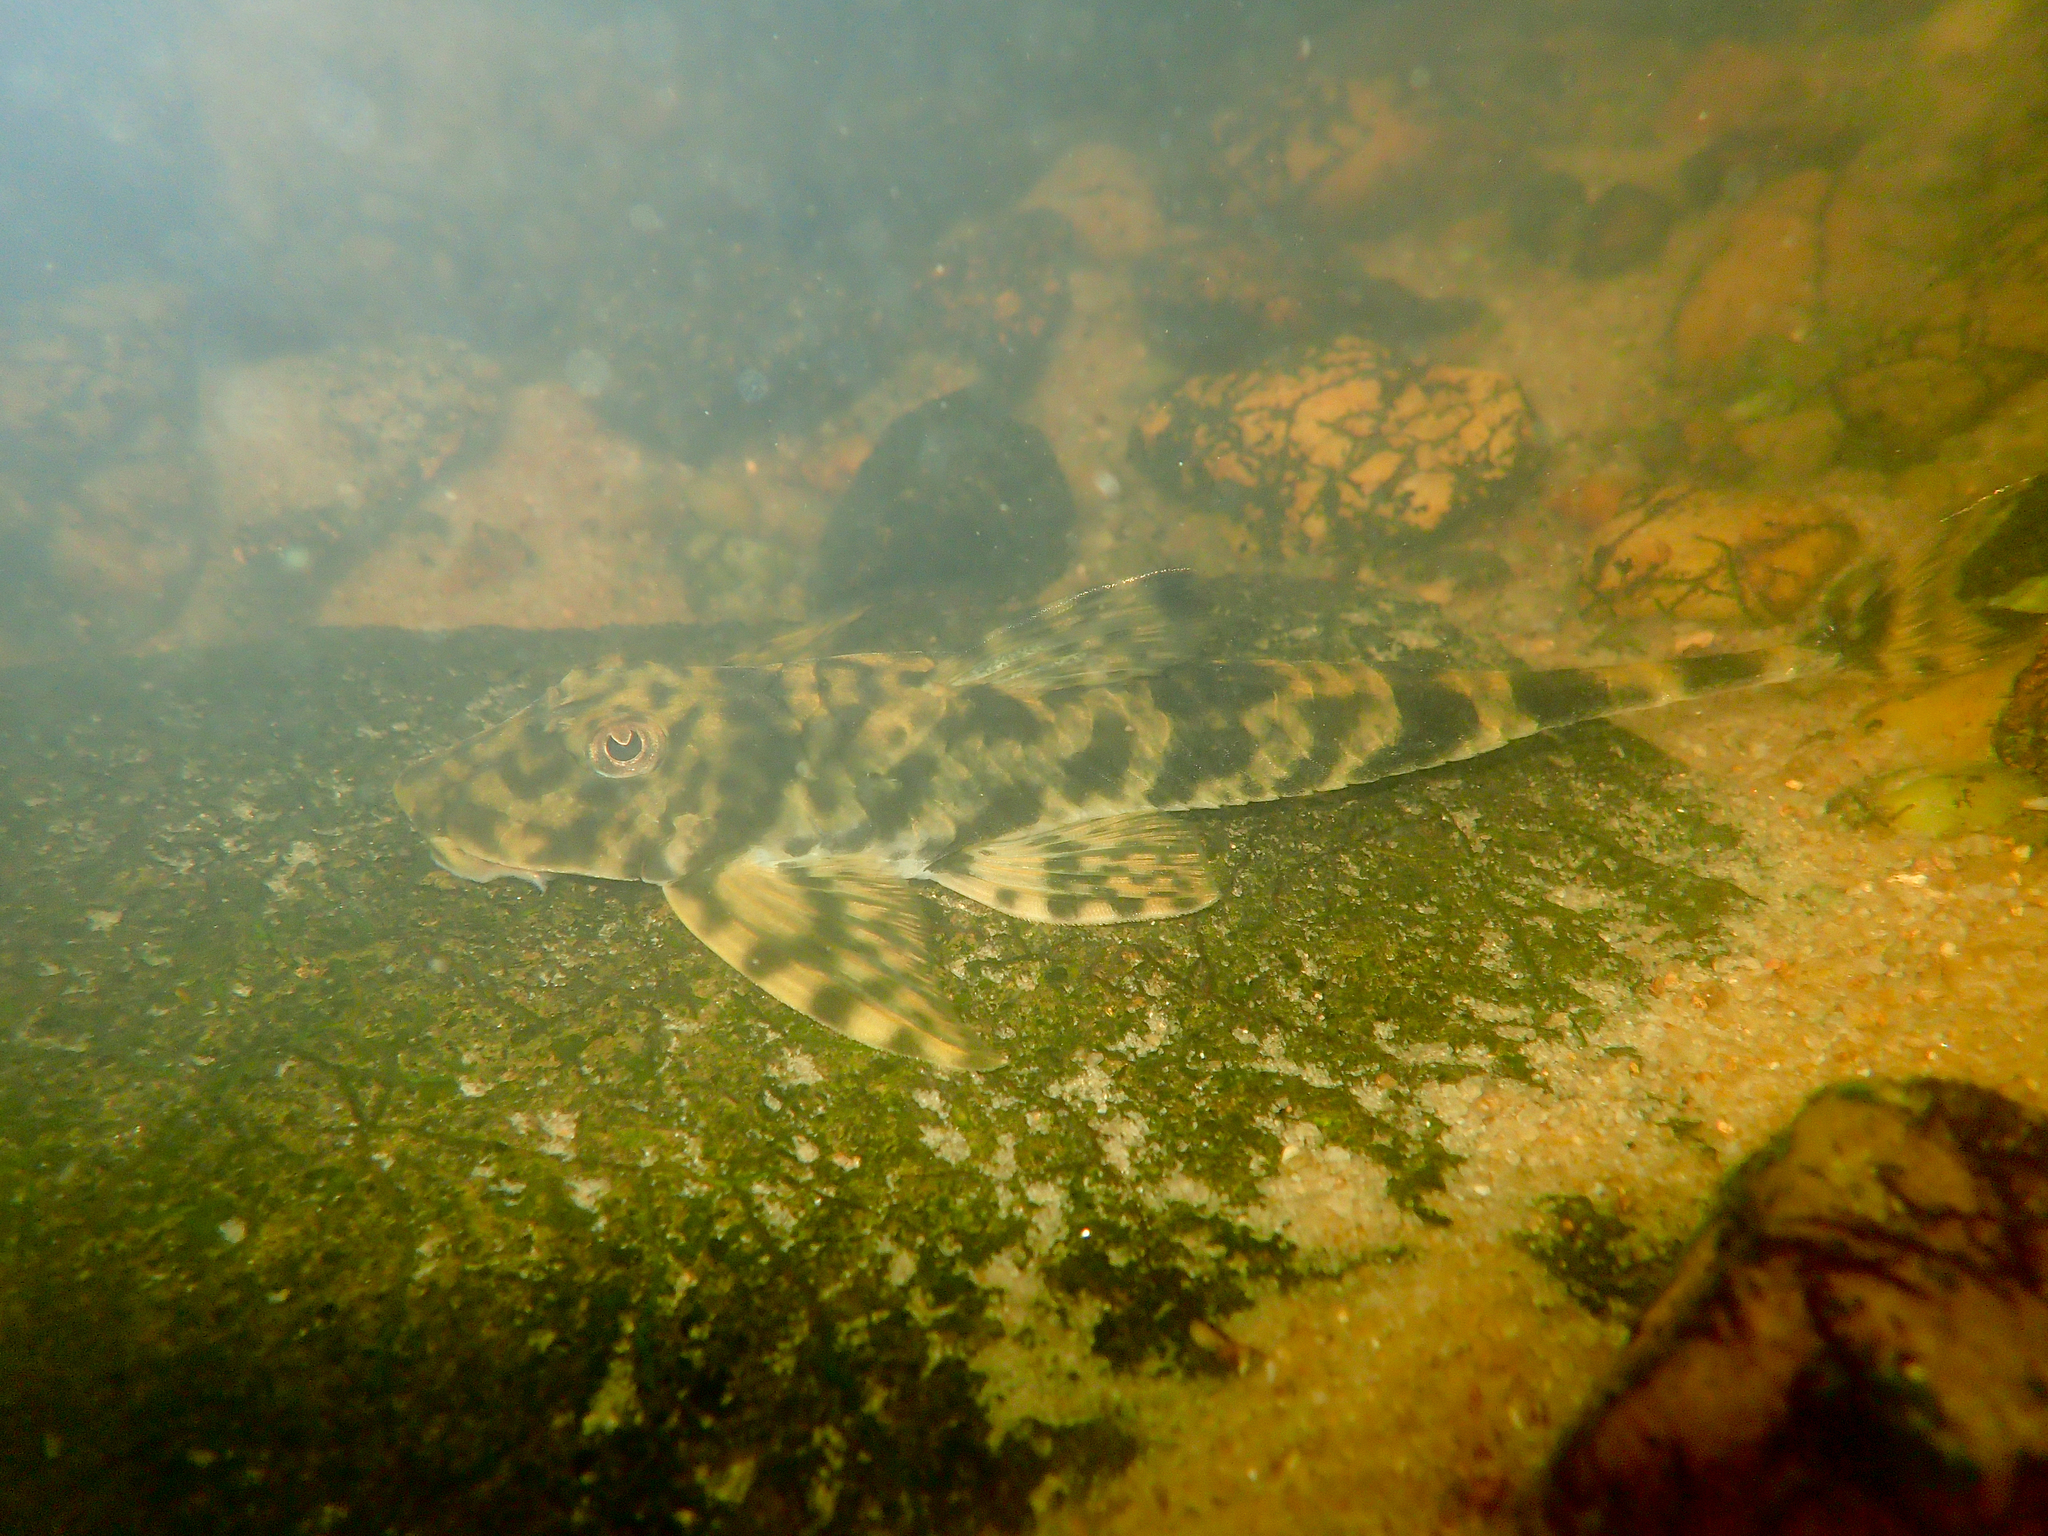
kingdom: Animalia
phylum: Chordata
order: Siluriformes
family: Loricariidae
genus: Harttia
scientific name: Harttia guianensis
